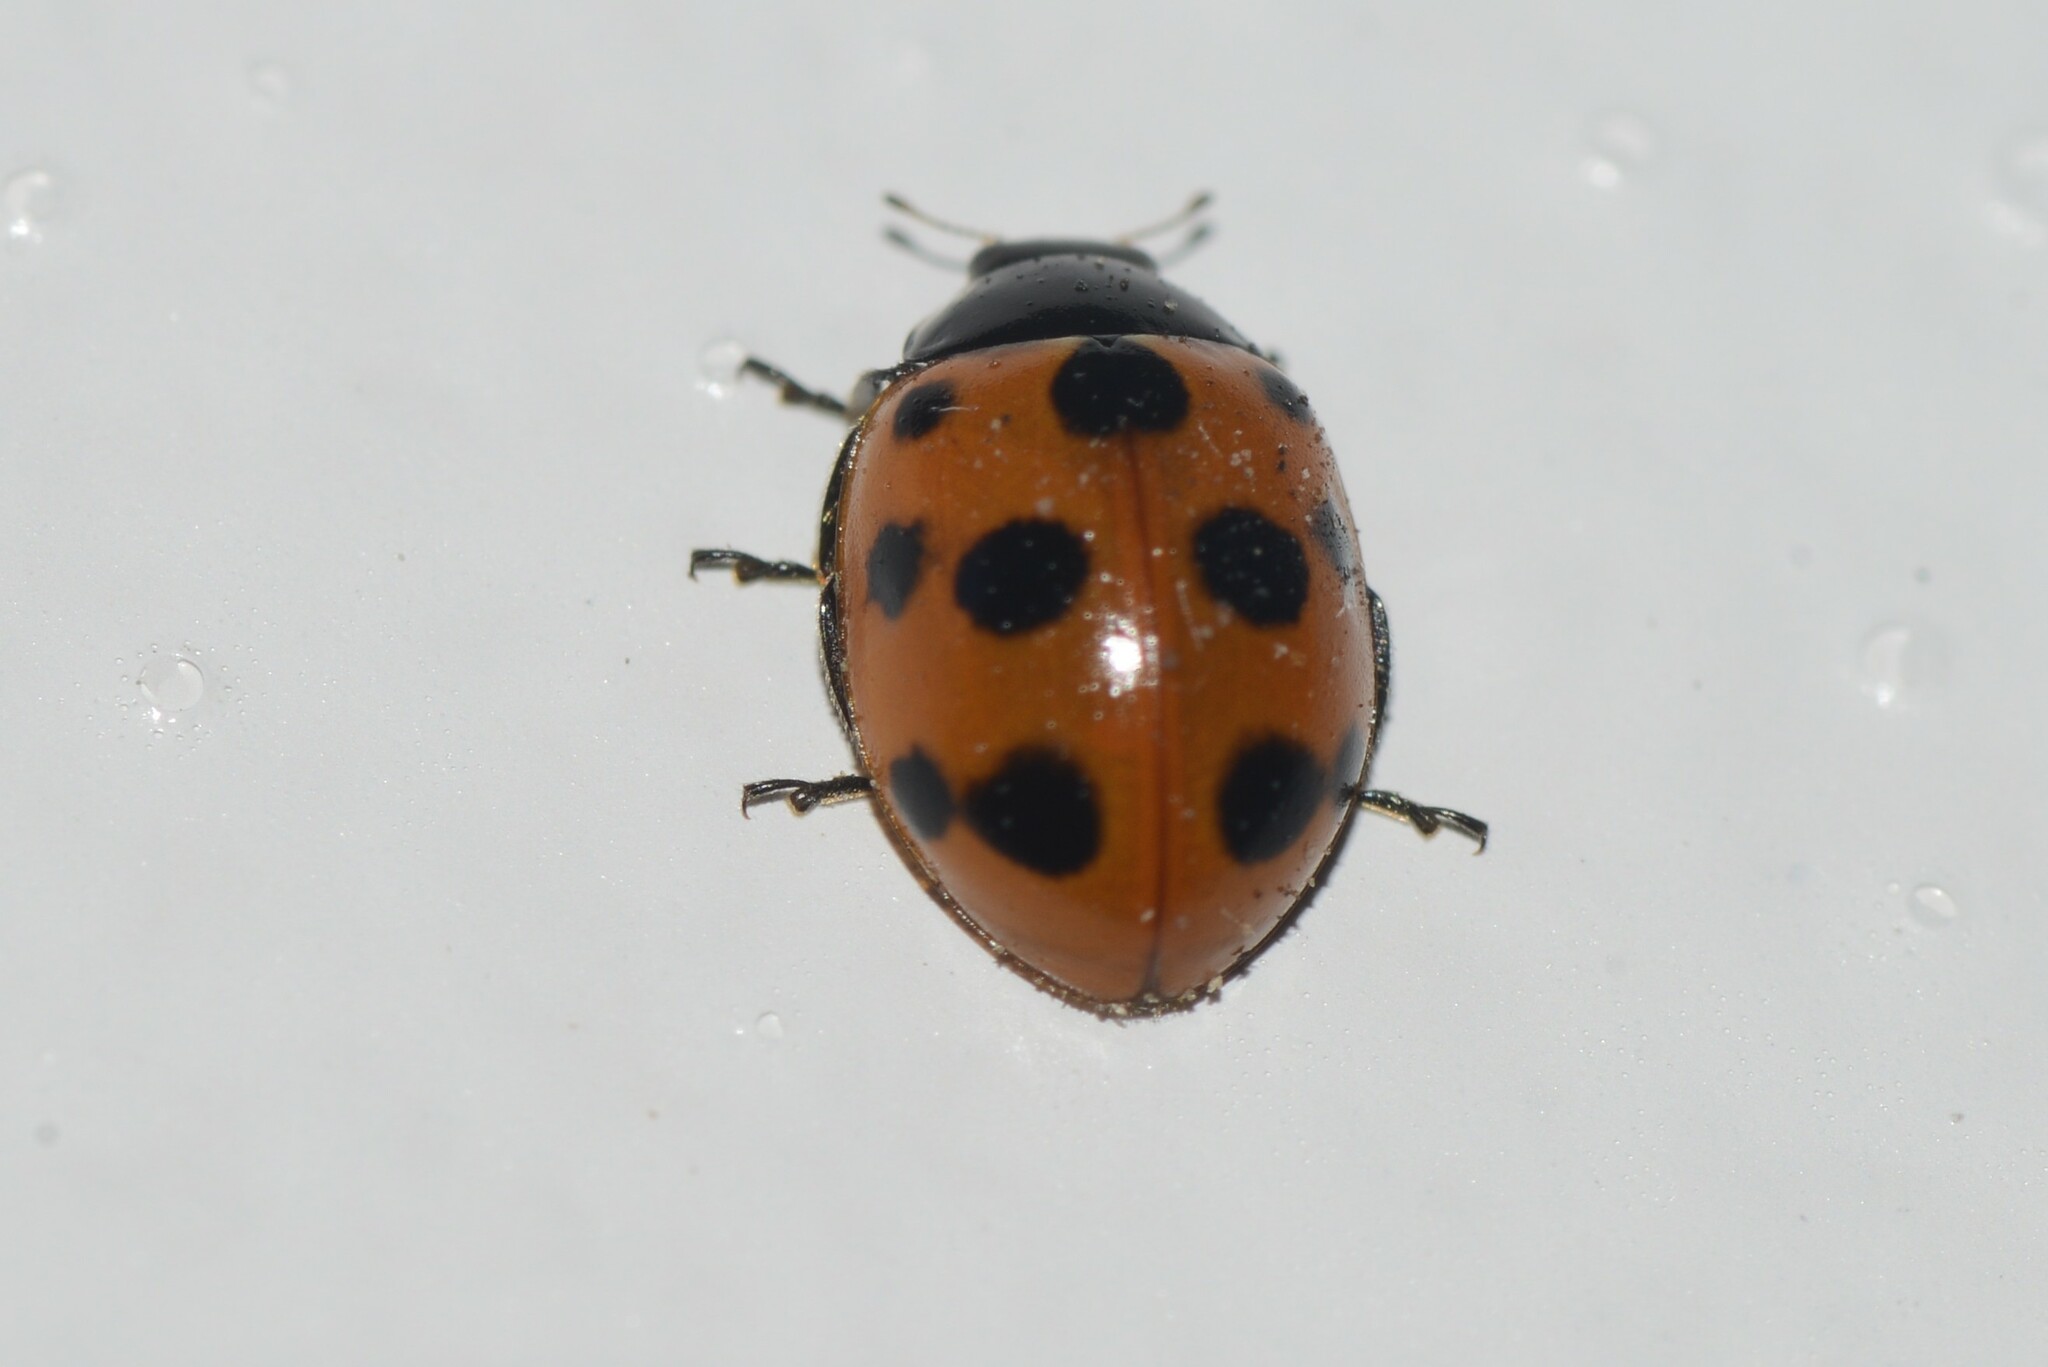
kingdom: Animalia
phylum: Arthropoda
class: Insecta
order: Coleoptera
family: Coccinellidae
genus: Coccinella
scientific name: Coccinella undecimpunctata
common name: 11-spot ladybird
